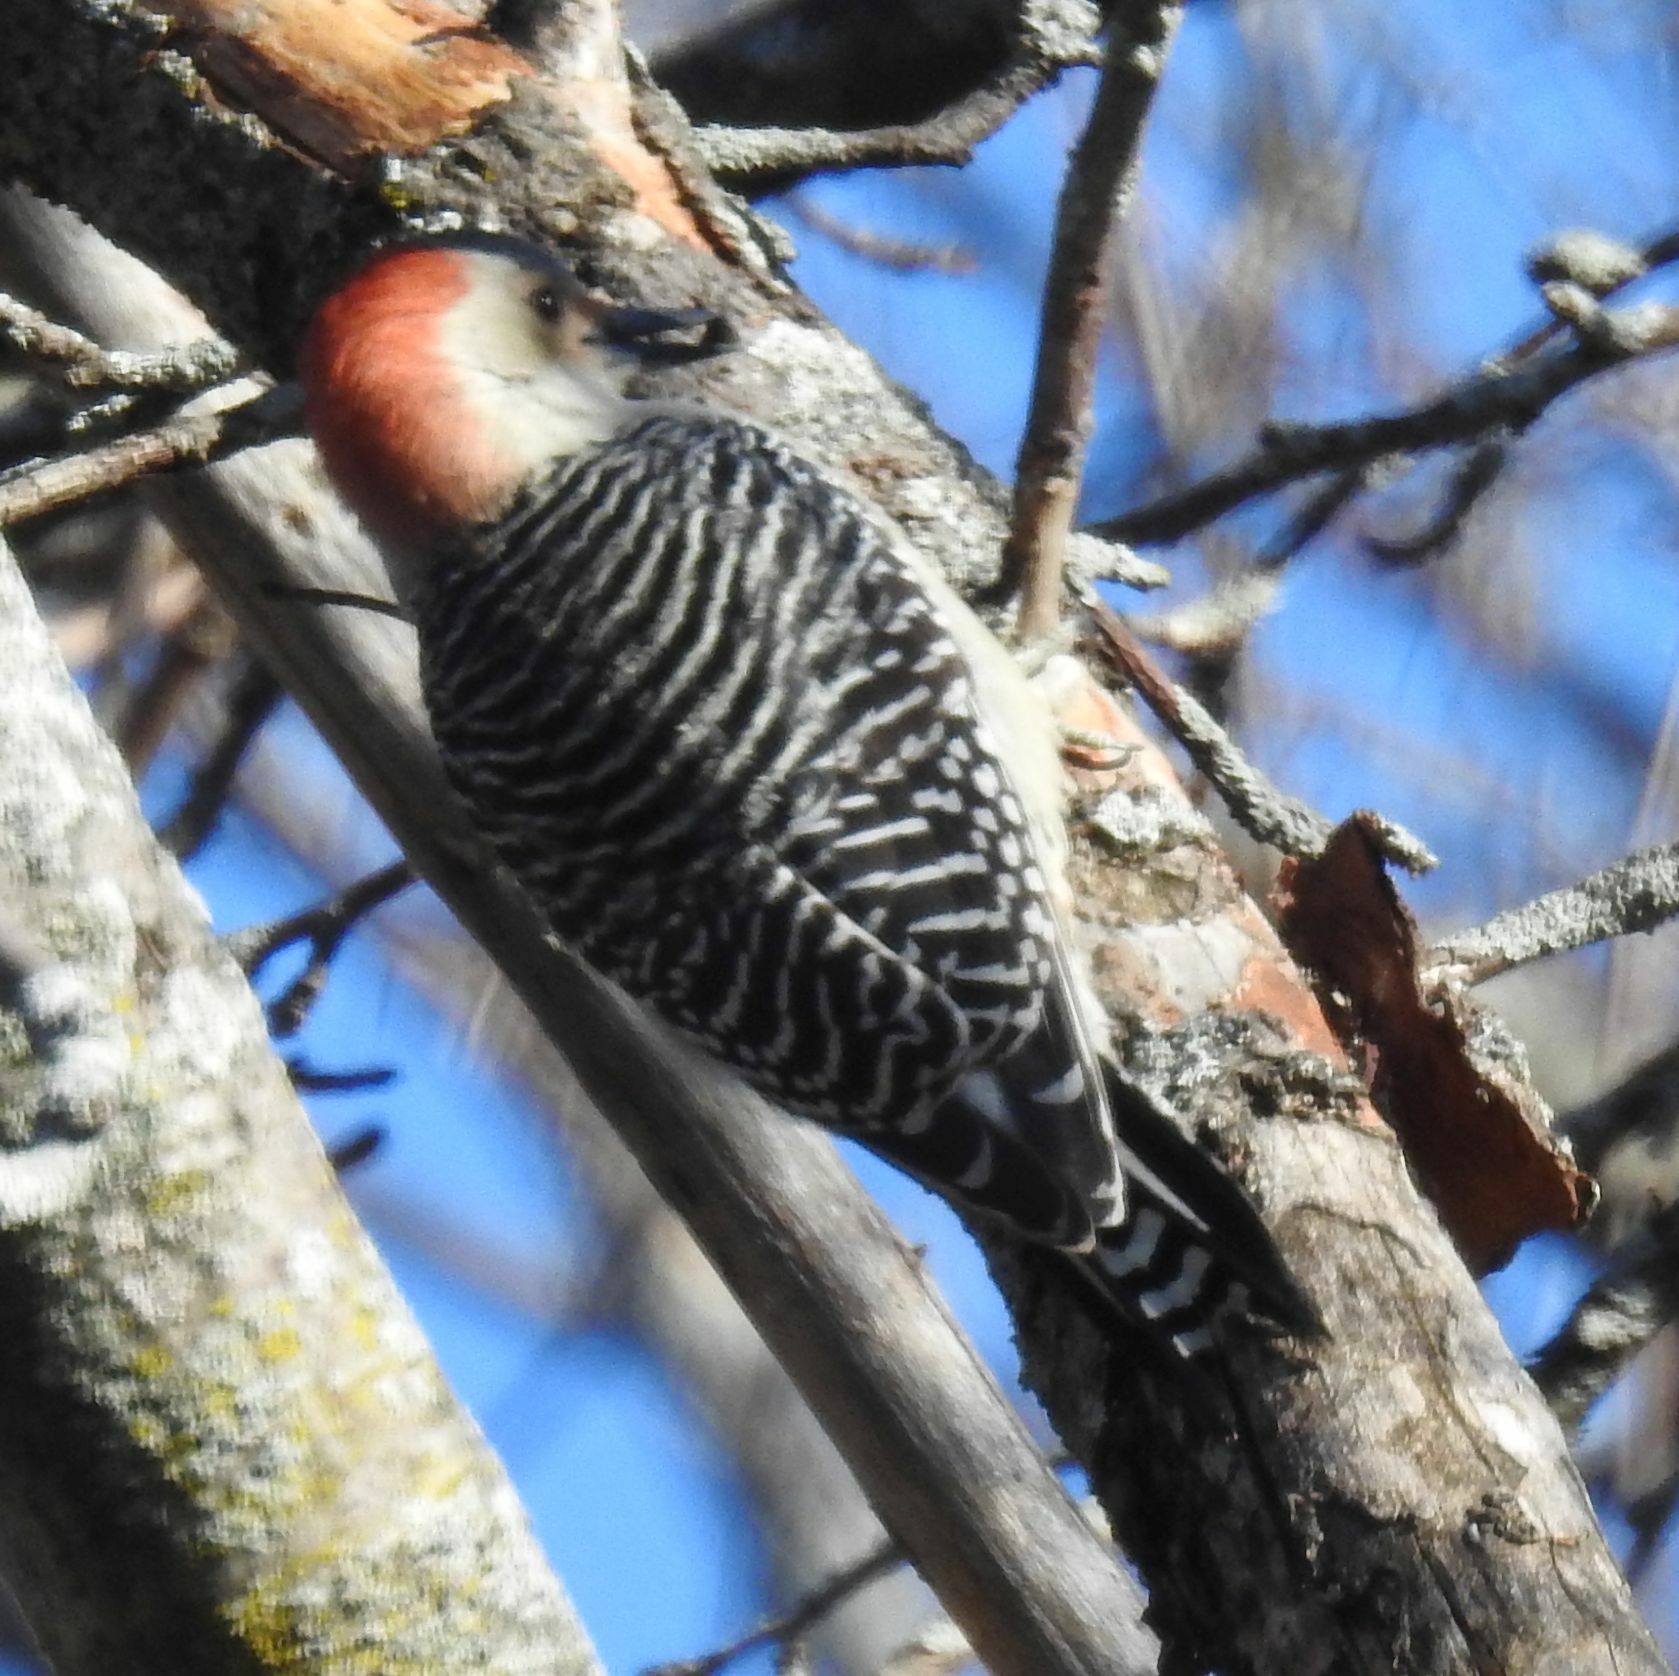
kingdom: Animalia
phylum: Chordata
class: Aves
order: Piciformes
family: Picidae
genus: Melanerpes
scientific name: Melanerpes carolinus
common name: Red-bellied woodpecker
